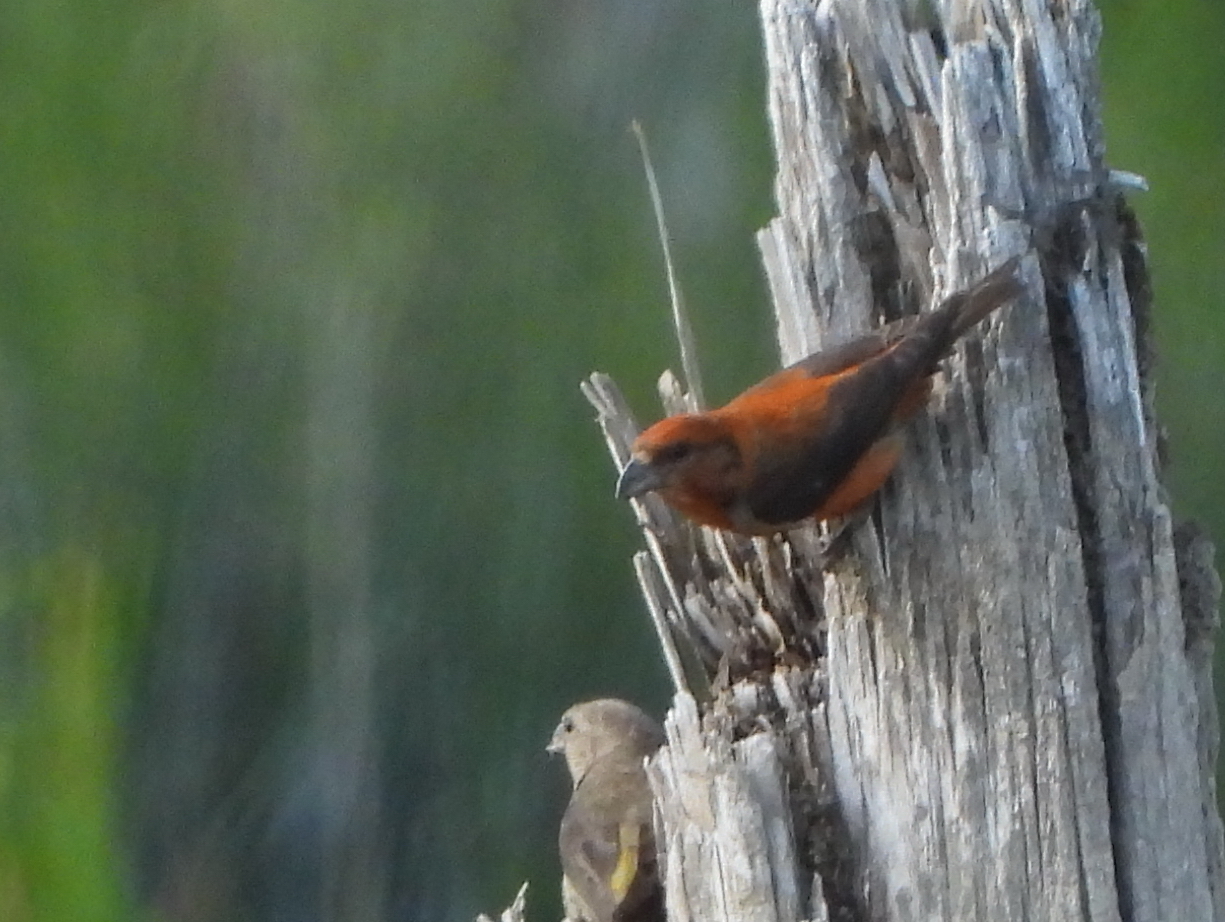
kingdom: Animalia
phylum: Chordata
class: Aves
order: Passeriformes
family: Fringillidae
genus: Loxia
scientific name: Loxia curvirostra
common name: Red crossbill
